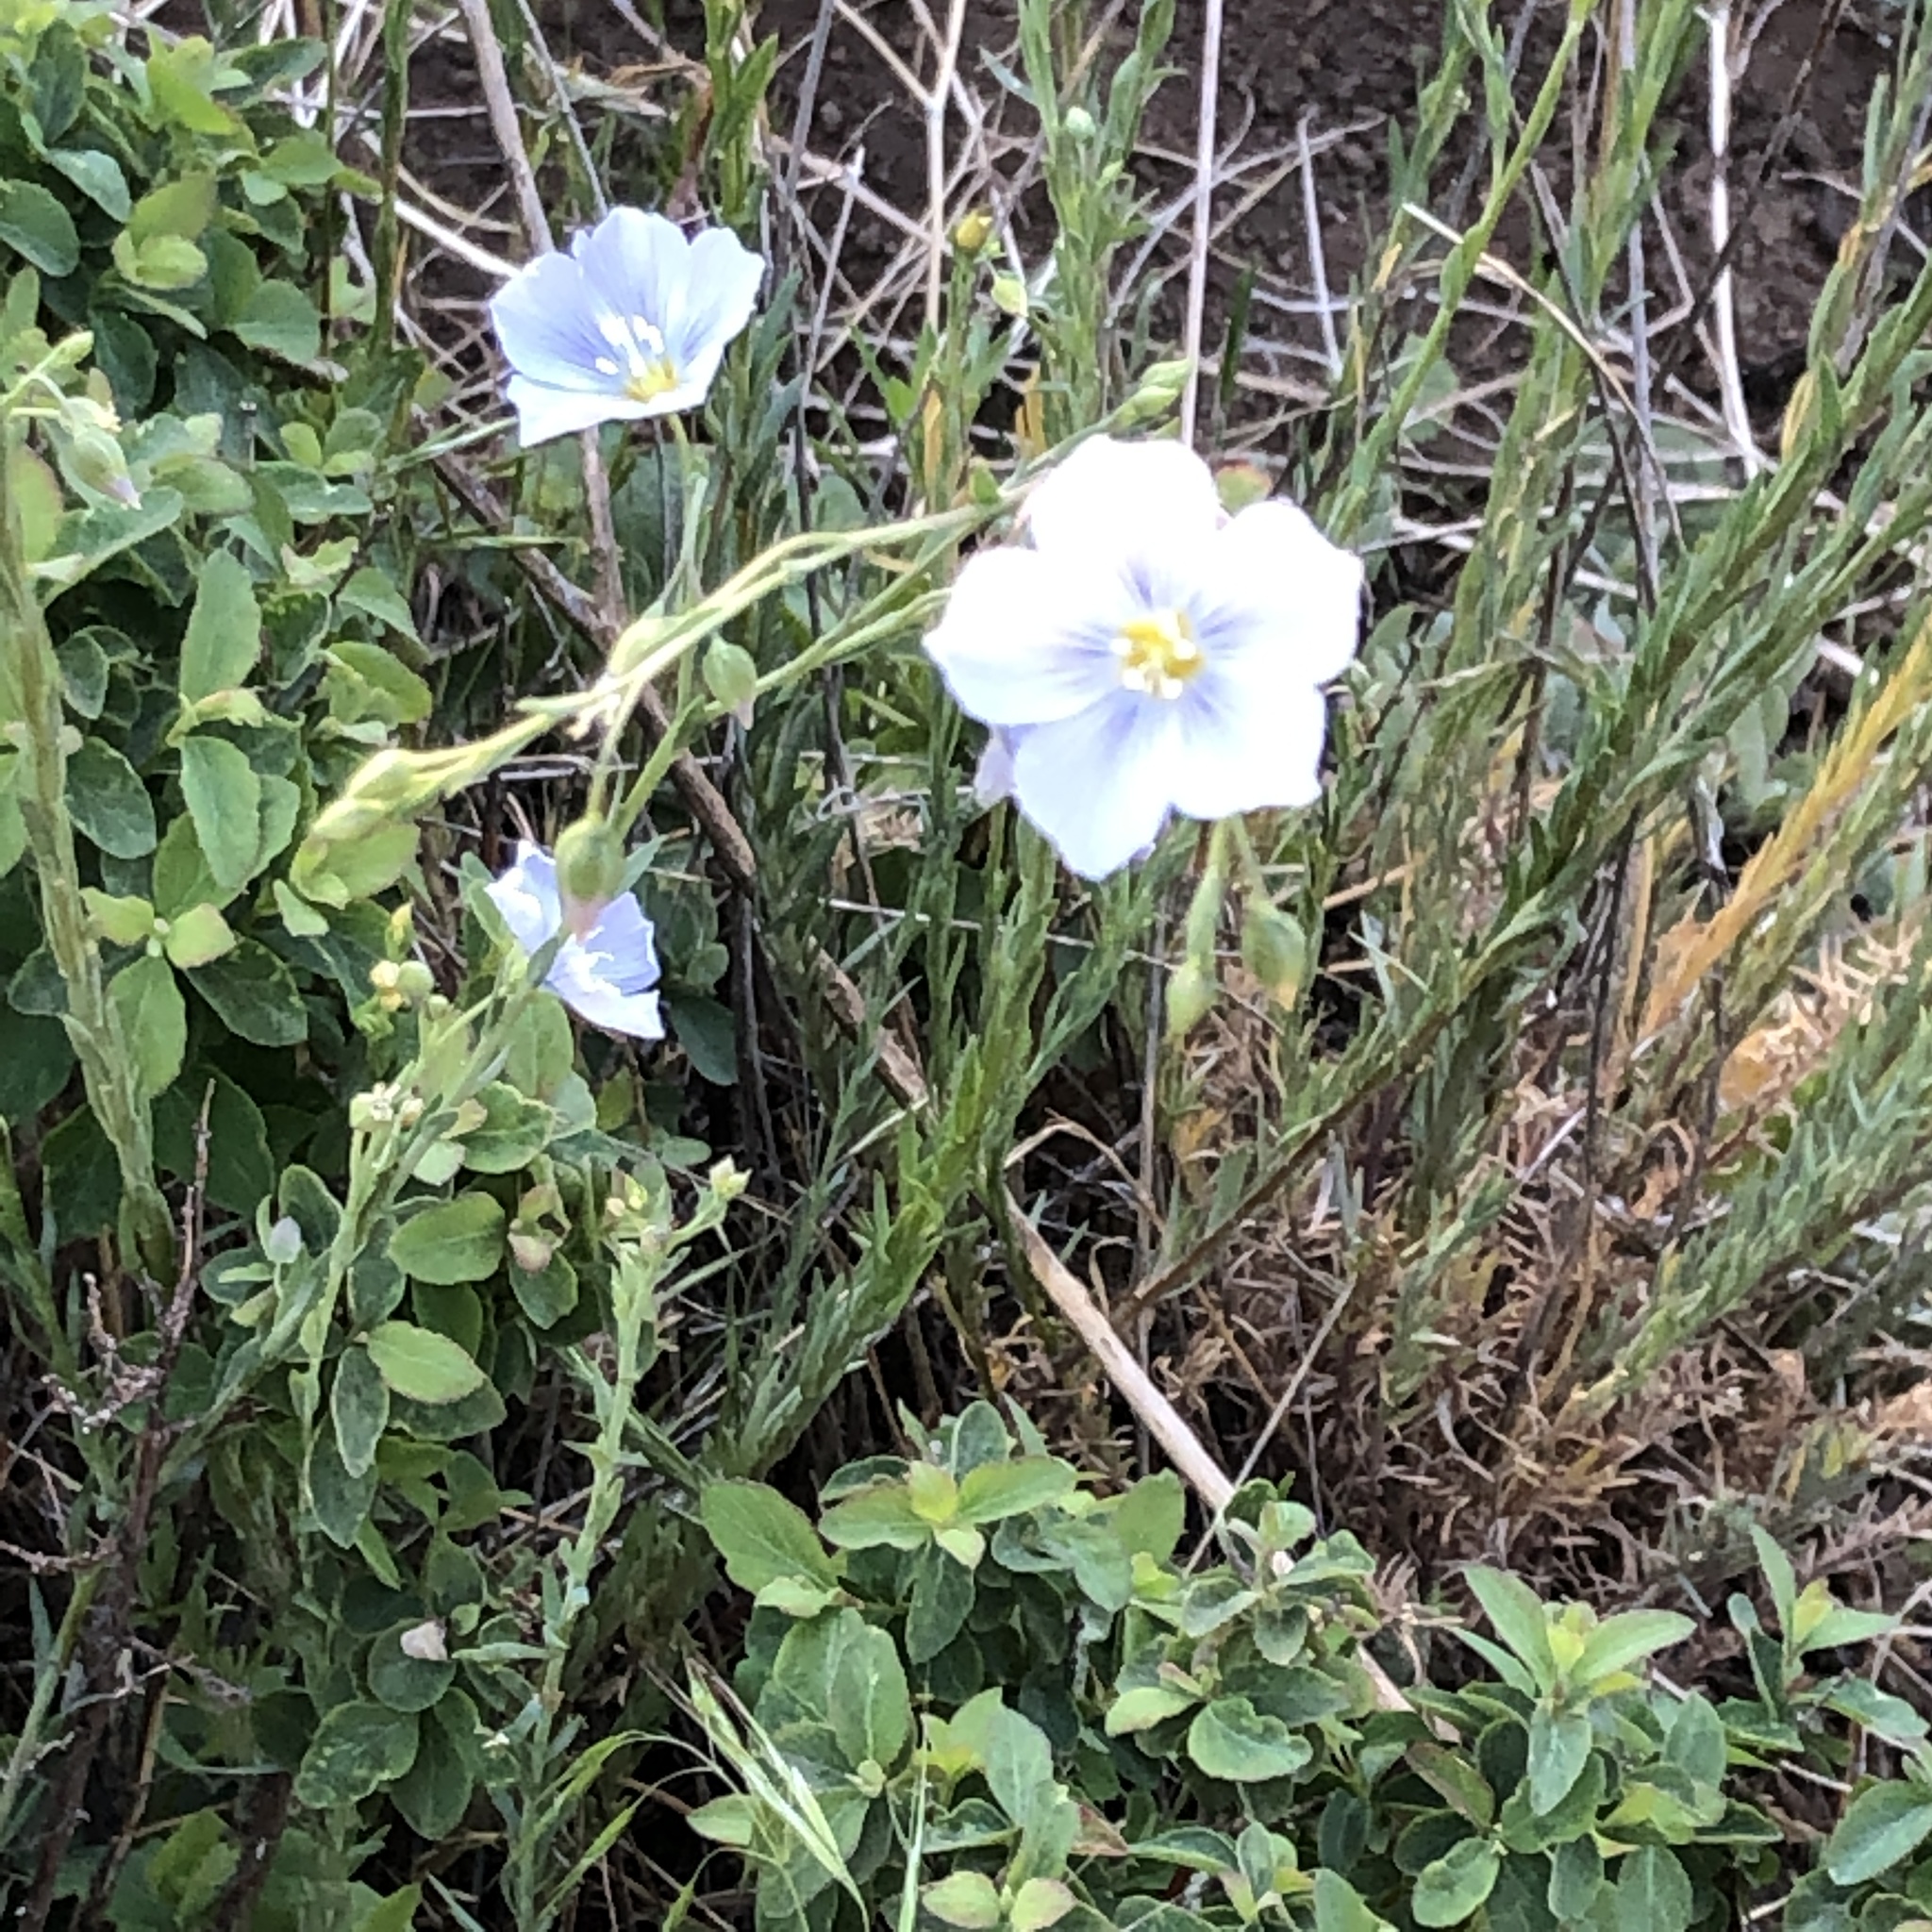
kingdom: Plantae
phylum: Tracheophyta
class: Magnoliopsida
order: Malpighiales
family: Linaceae
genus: Linum
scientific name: Linum lewisii
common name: Prairie flax
